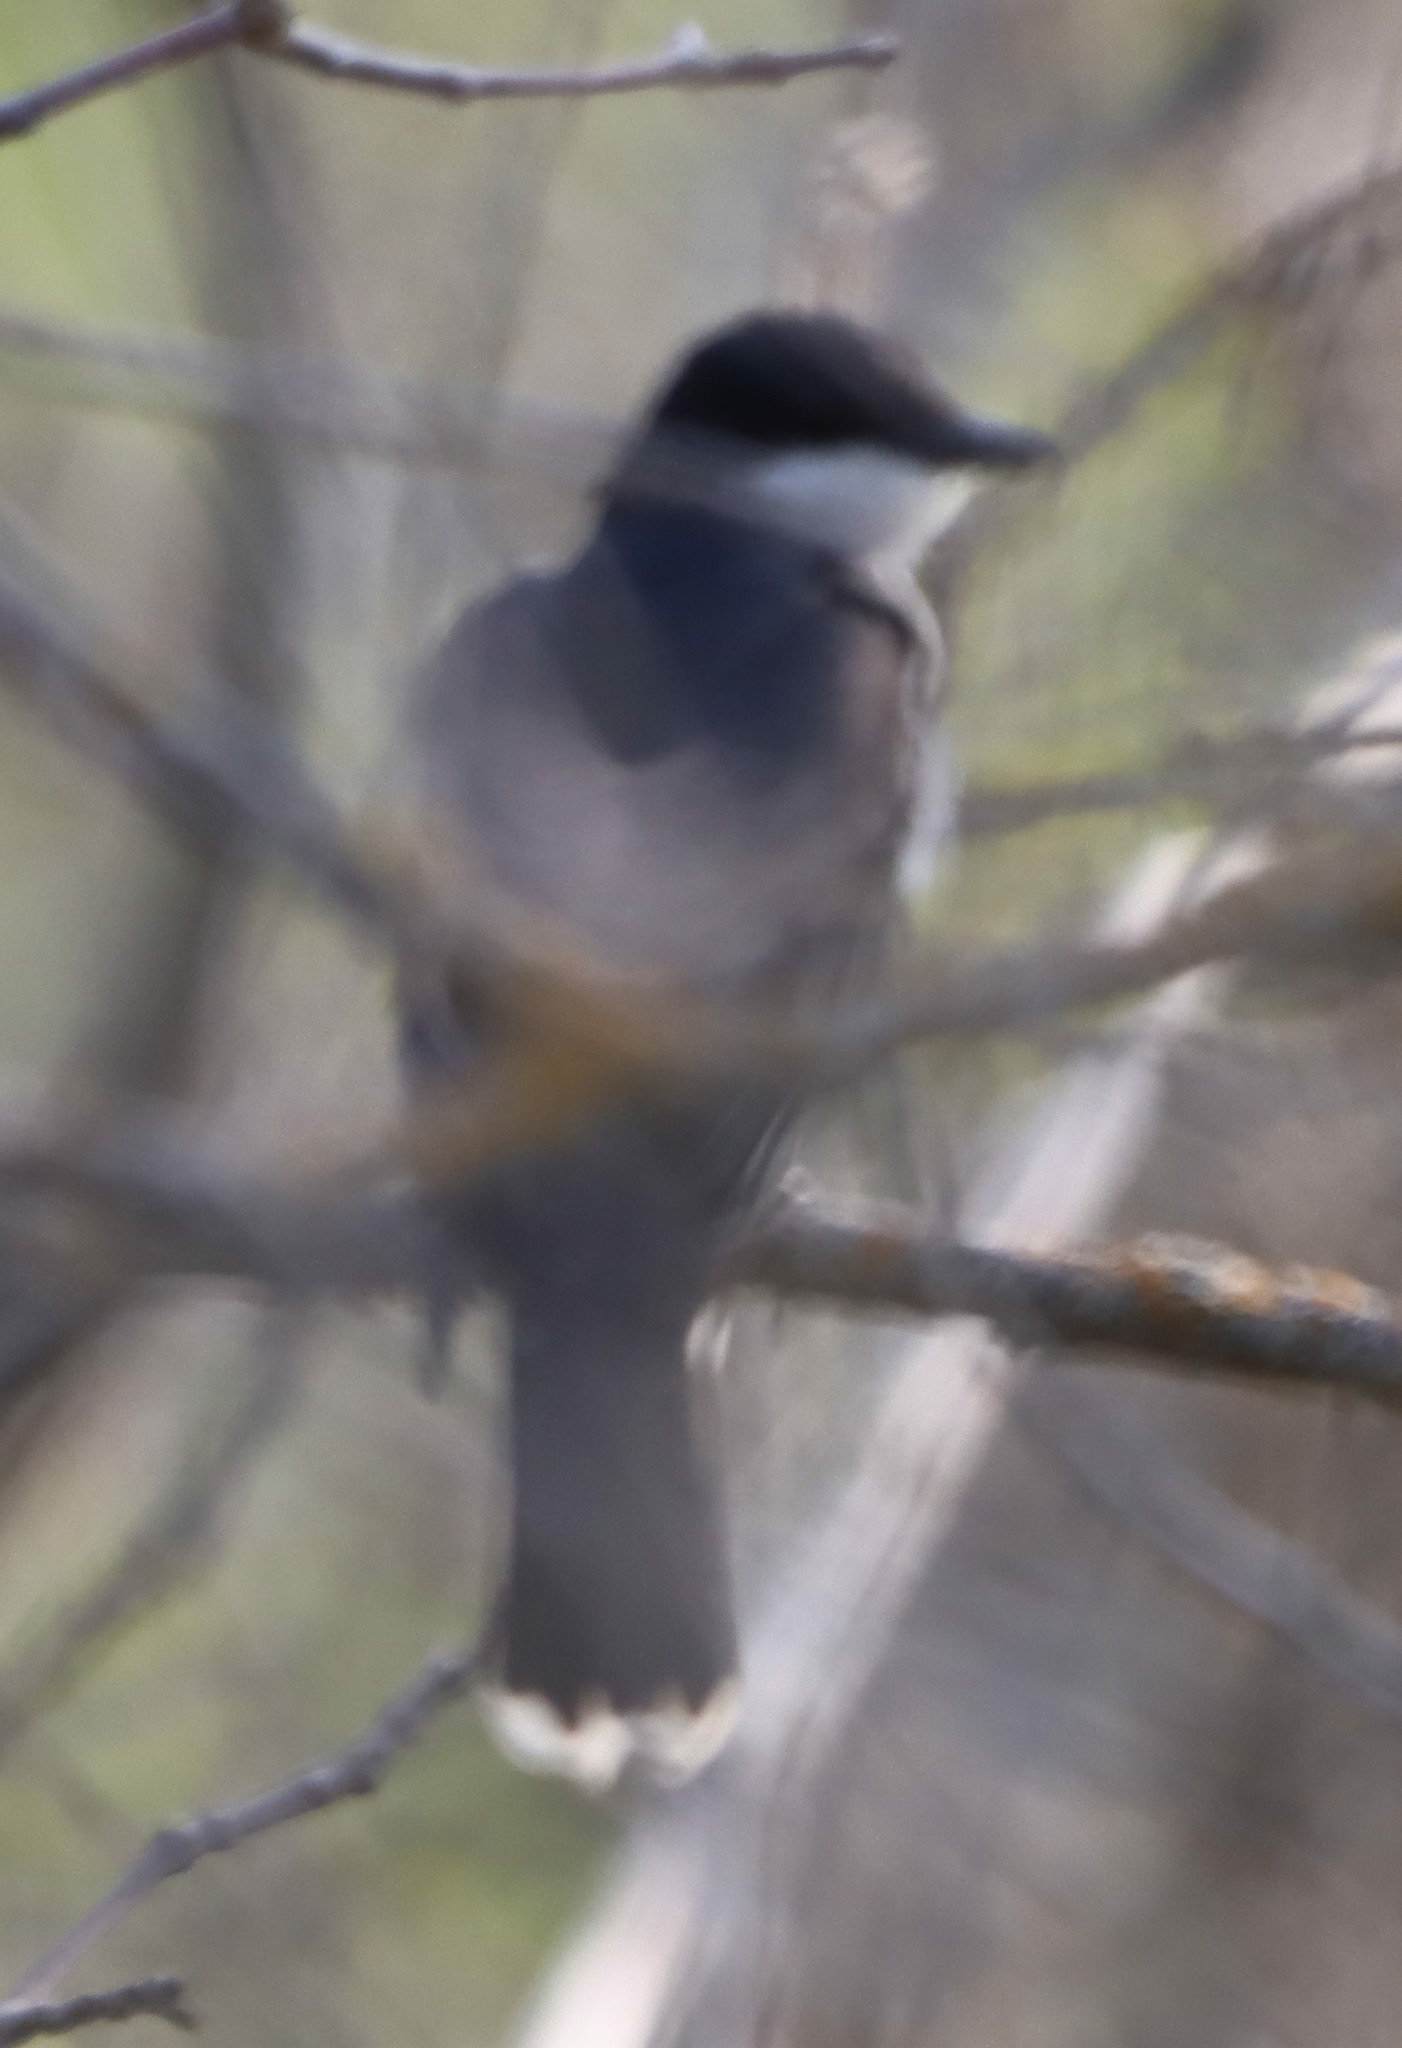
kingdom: Animalia
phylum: Chordata
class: Aves
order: Passeriformes
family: Tyrannidae
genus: Tyrannus
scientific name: Tyrannus tyrannus
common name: Eastern kingbird
